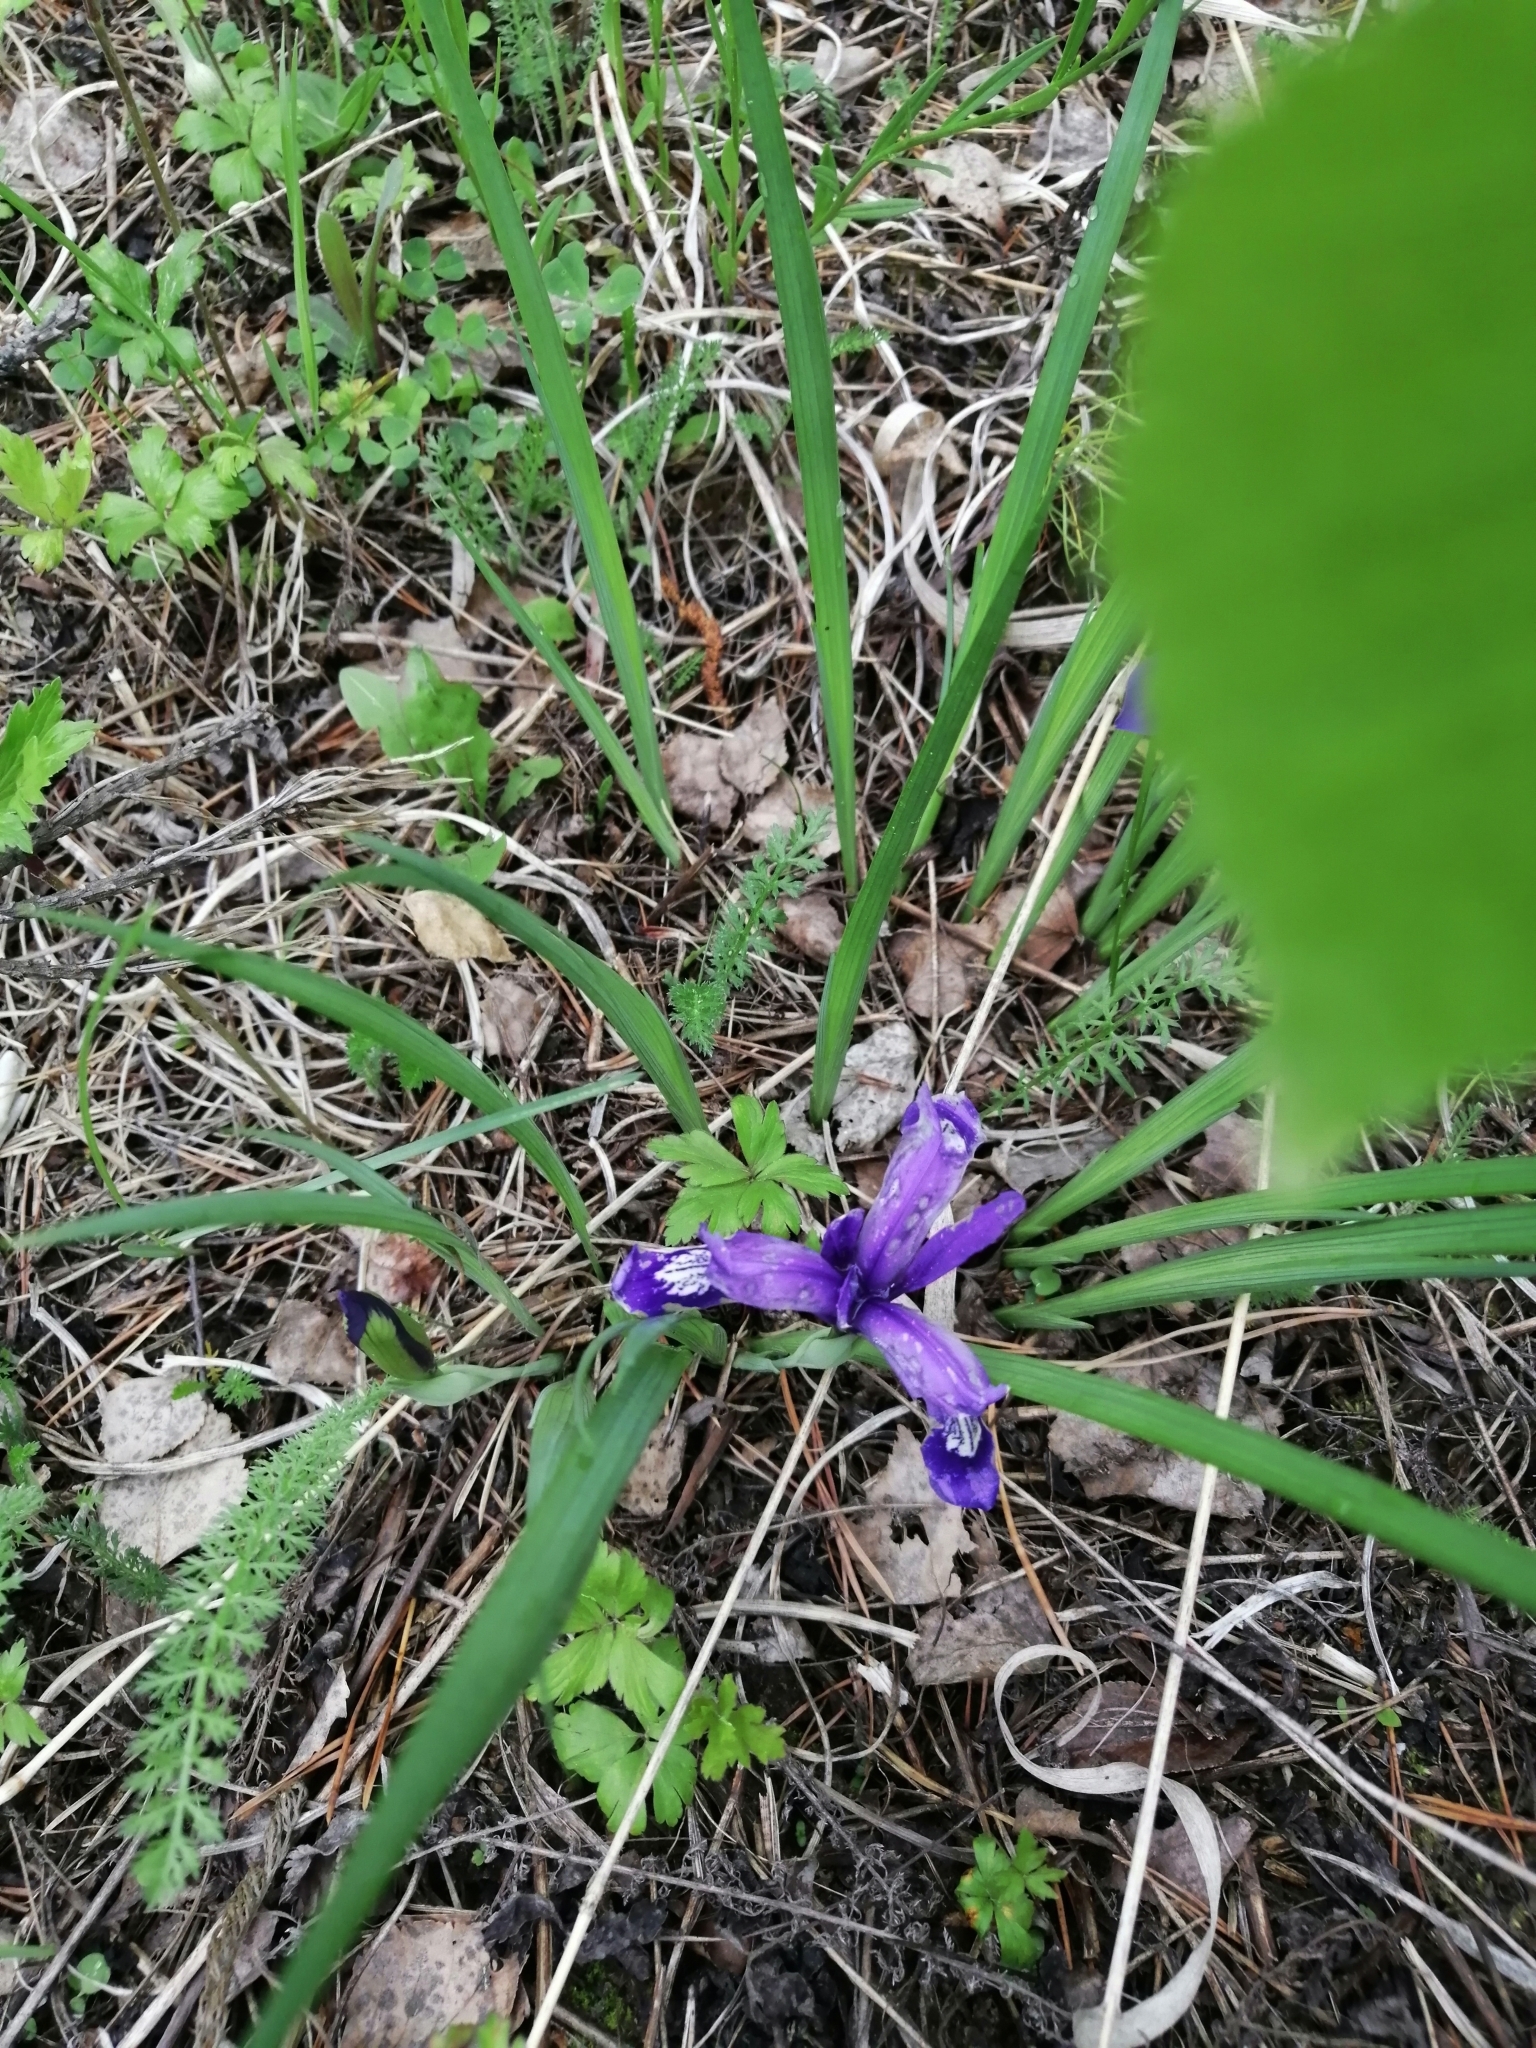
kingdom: Plantae
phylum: Tracheophyta
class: Liliopsida
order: Asparagales
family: Iridaceae
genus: Iris
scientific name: Iris ruthenica
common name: Purple-bract iris
